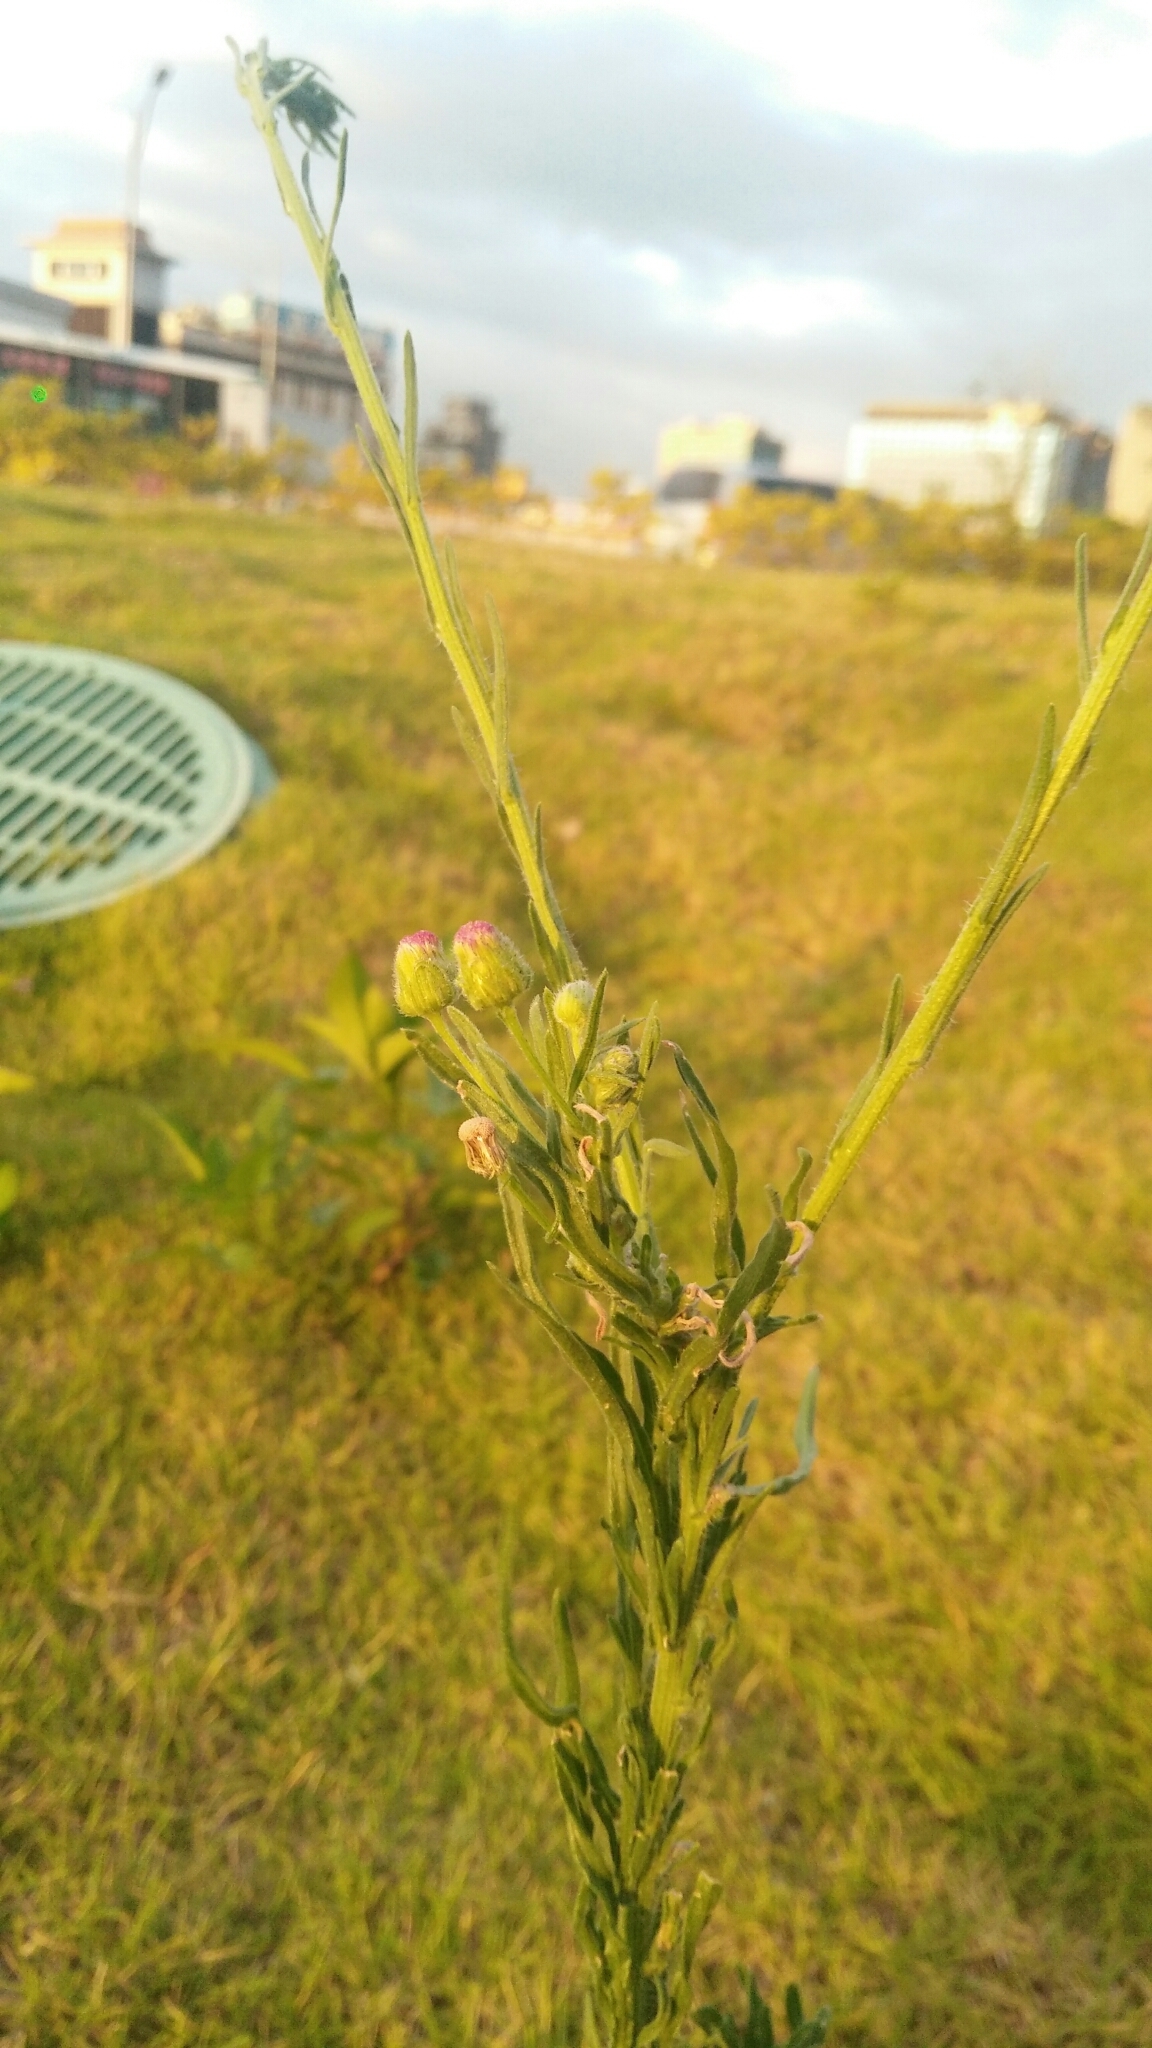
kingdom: Plantae
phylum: Tracheophyta
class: Magnoliopsida
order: Asterales
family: Asteraceae
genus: Erigeron
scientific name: Erigeron bonariensis
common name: Argentine fleabane
